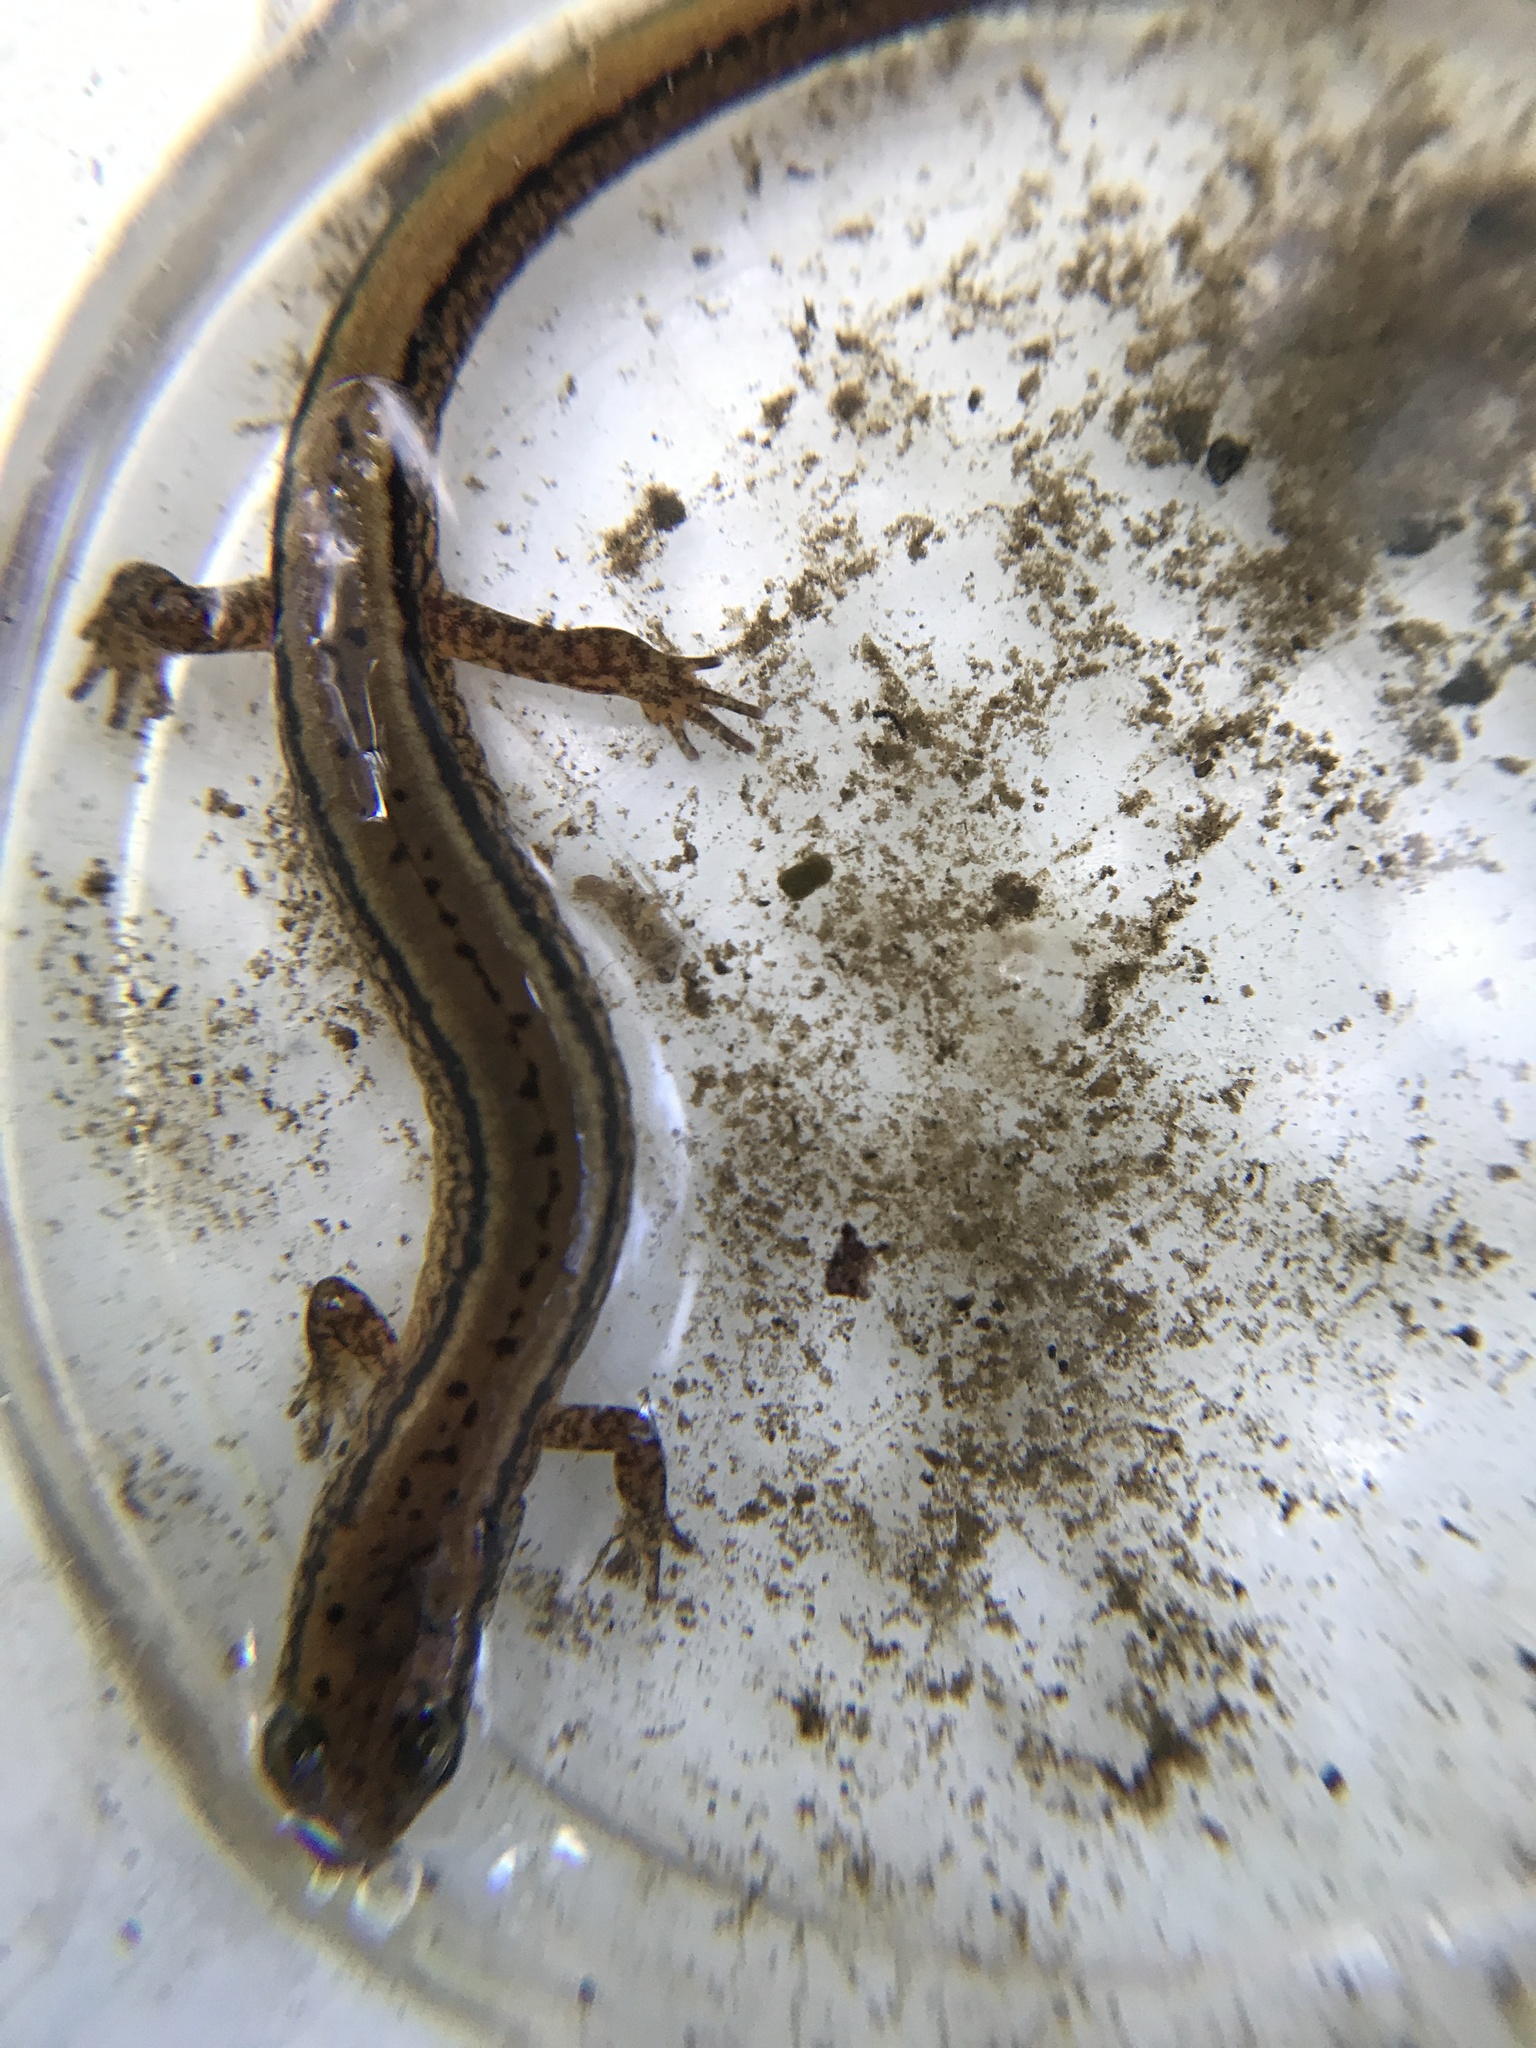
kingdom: Animalia
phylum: Chordata
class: Amphibia
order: Caudata
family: Plethodontidae
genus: Eurycea
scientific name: Eurycea bislineata
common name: Northern two-lined salamander
